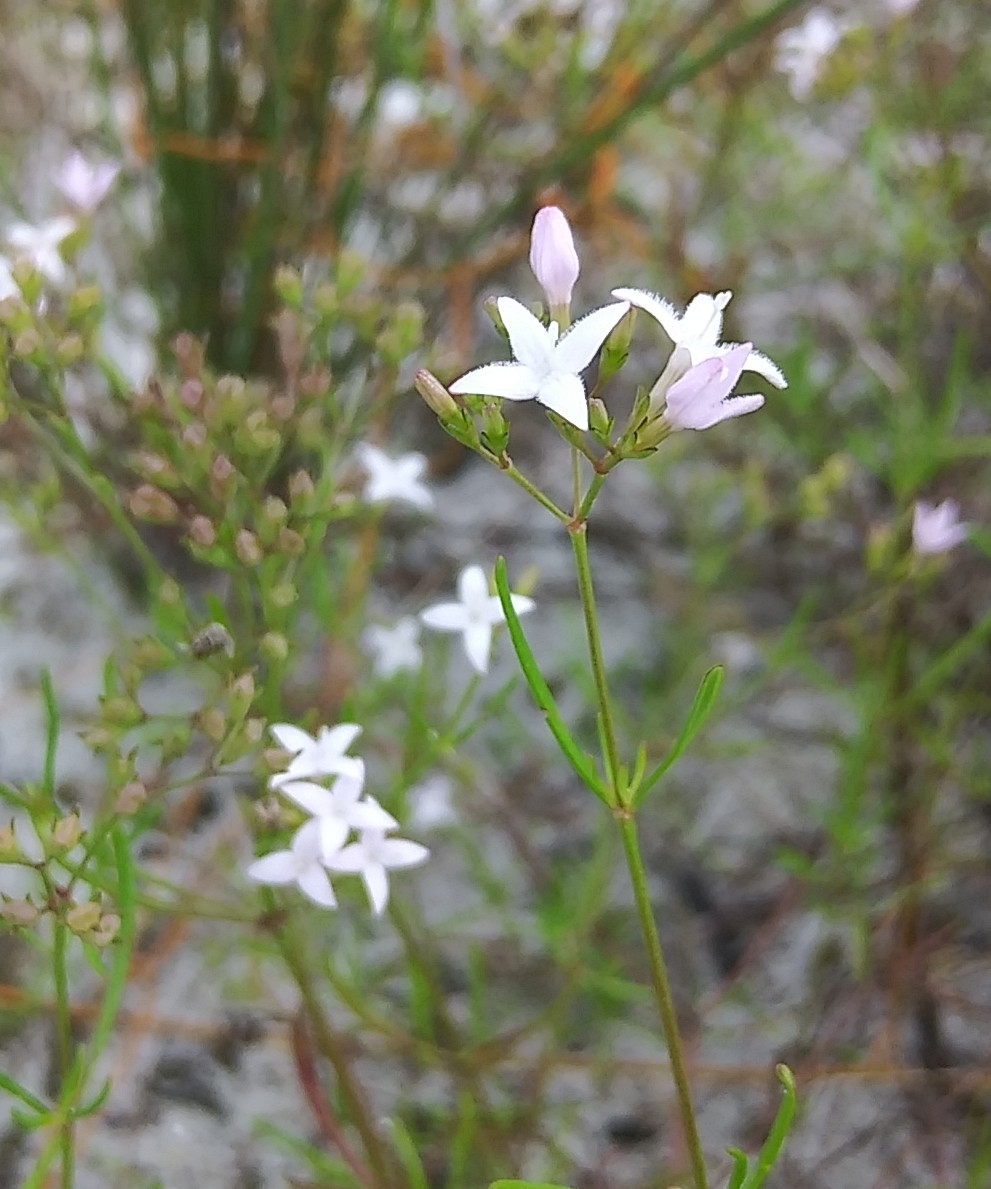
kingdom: Plantae
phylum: Tracheophyta
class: Magnoliopsida
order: Gentianales
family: Rubiaceae
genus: Stenaria
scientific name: Stenaria nigricans
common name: Diamondflowers
